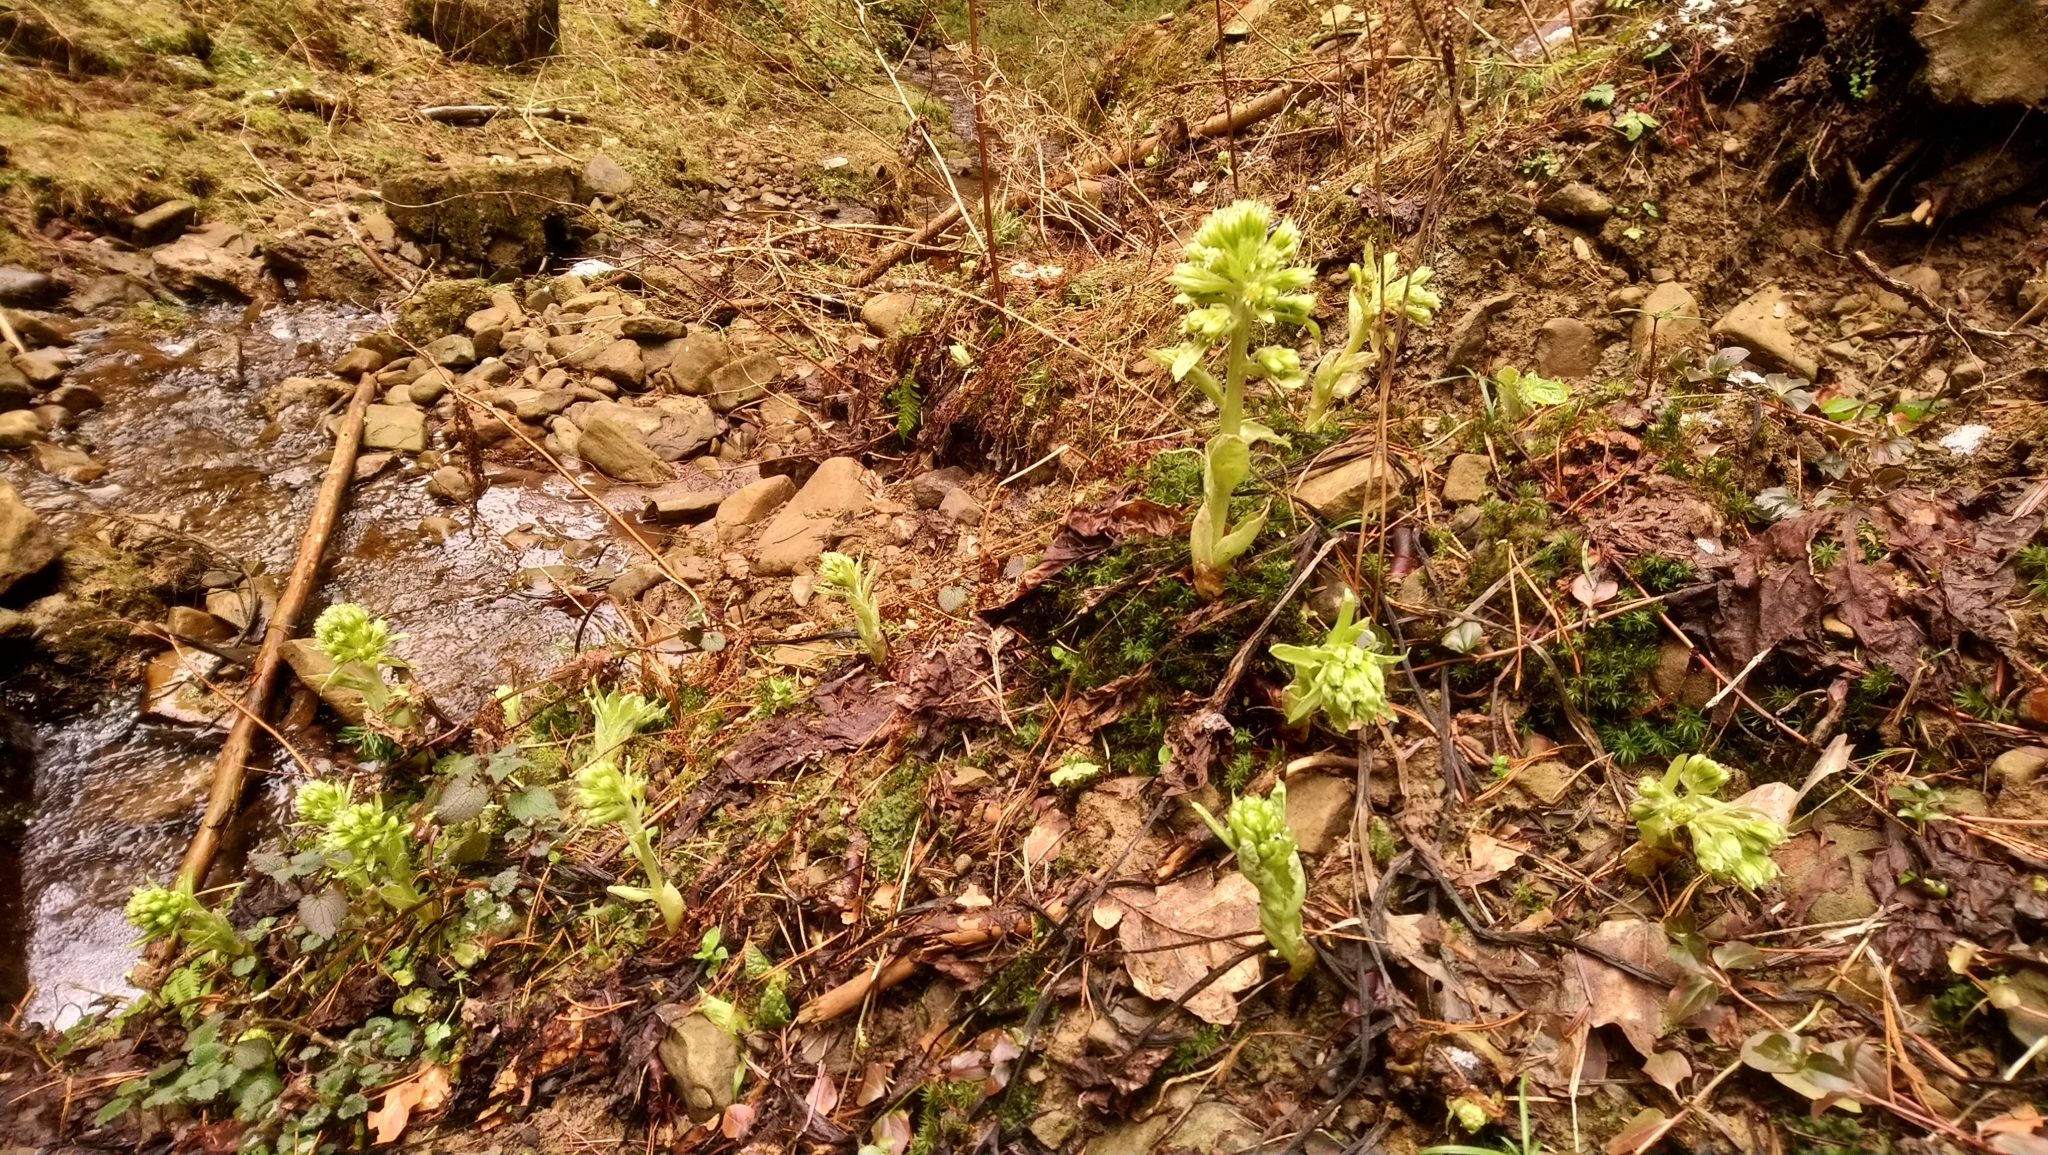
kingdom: Plantae
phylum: Tracheophyta
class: Magnoliopsida
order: Asterales
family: Asteraceae
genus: Petasites
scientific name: Petasites albus
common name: White butterbur
